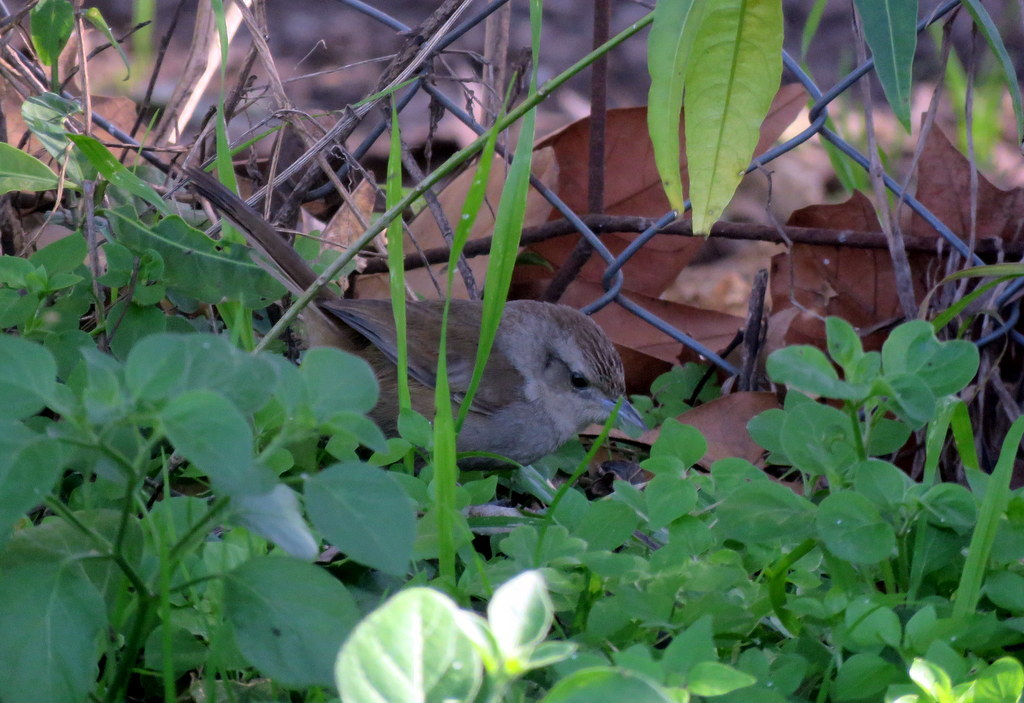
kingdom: Animalia
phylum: Chordata
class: Aves
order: Passeriformes
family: Furnariidae
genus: Phacellodomus
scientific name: Phacellodomus sibilatrix
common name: Little thornbird
